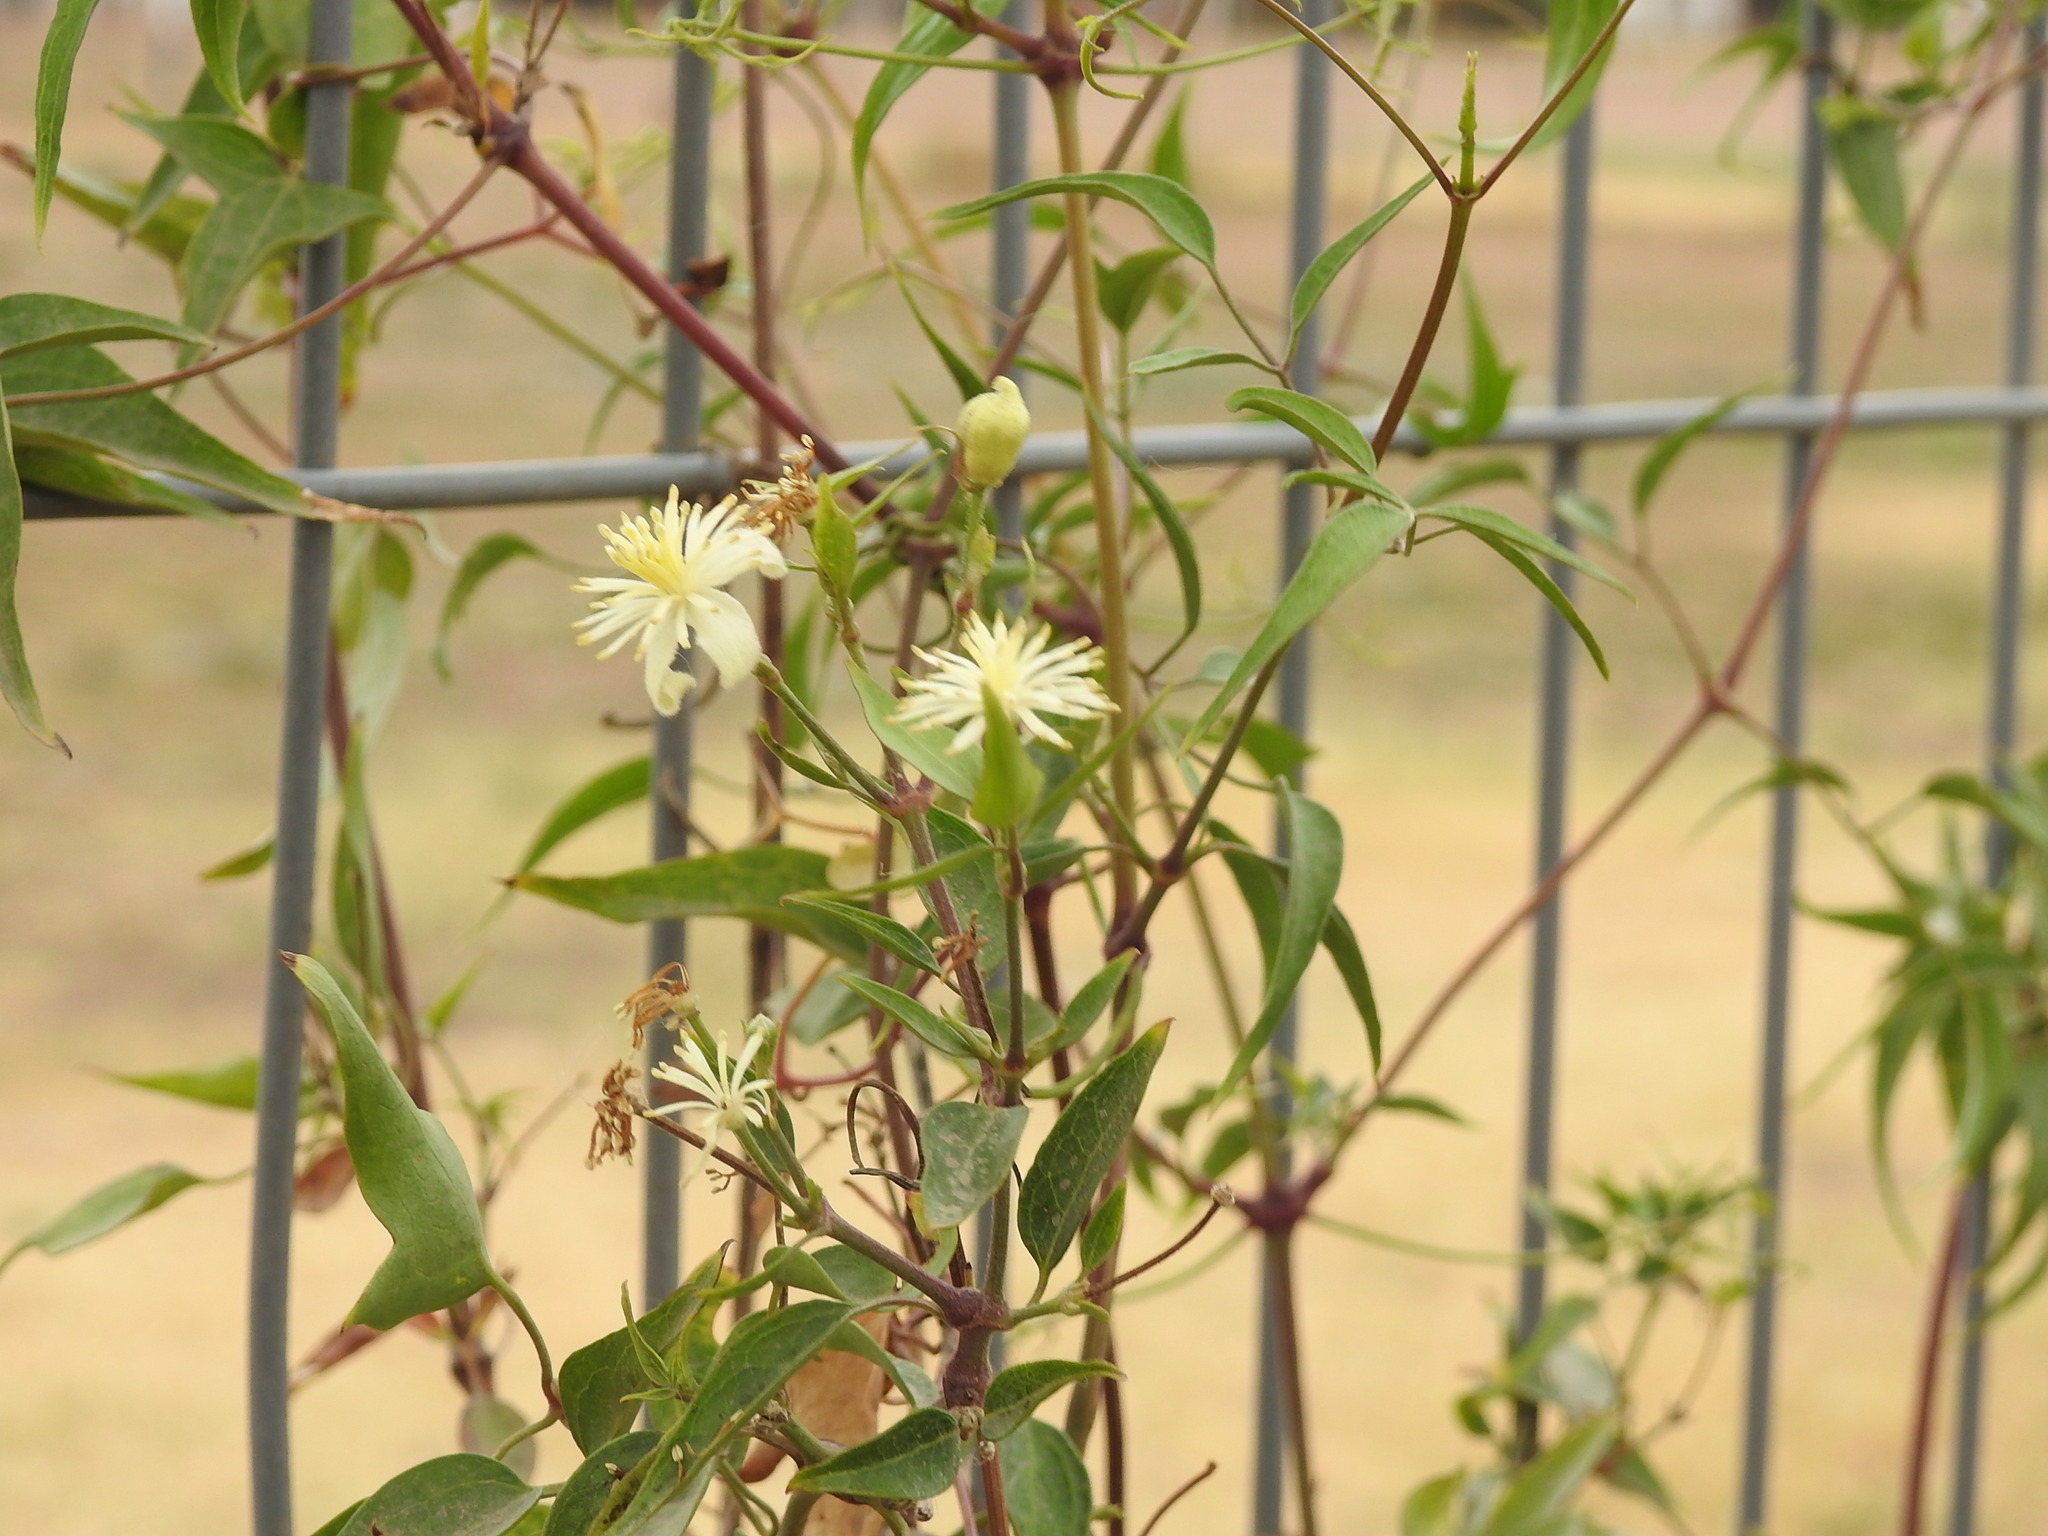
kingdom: Plantae
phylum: Tracheophyta
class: Magnoliopsida
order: Ranunculales
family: Ranunculaceae
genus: Clematis
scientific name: Clematis montevidensis
